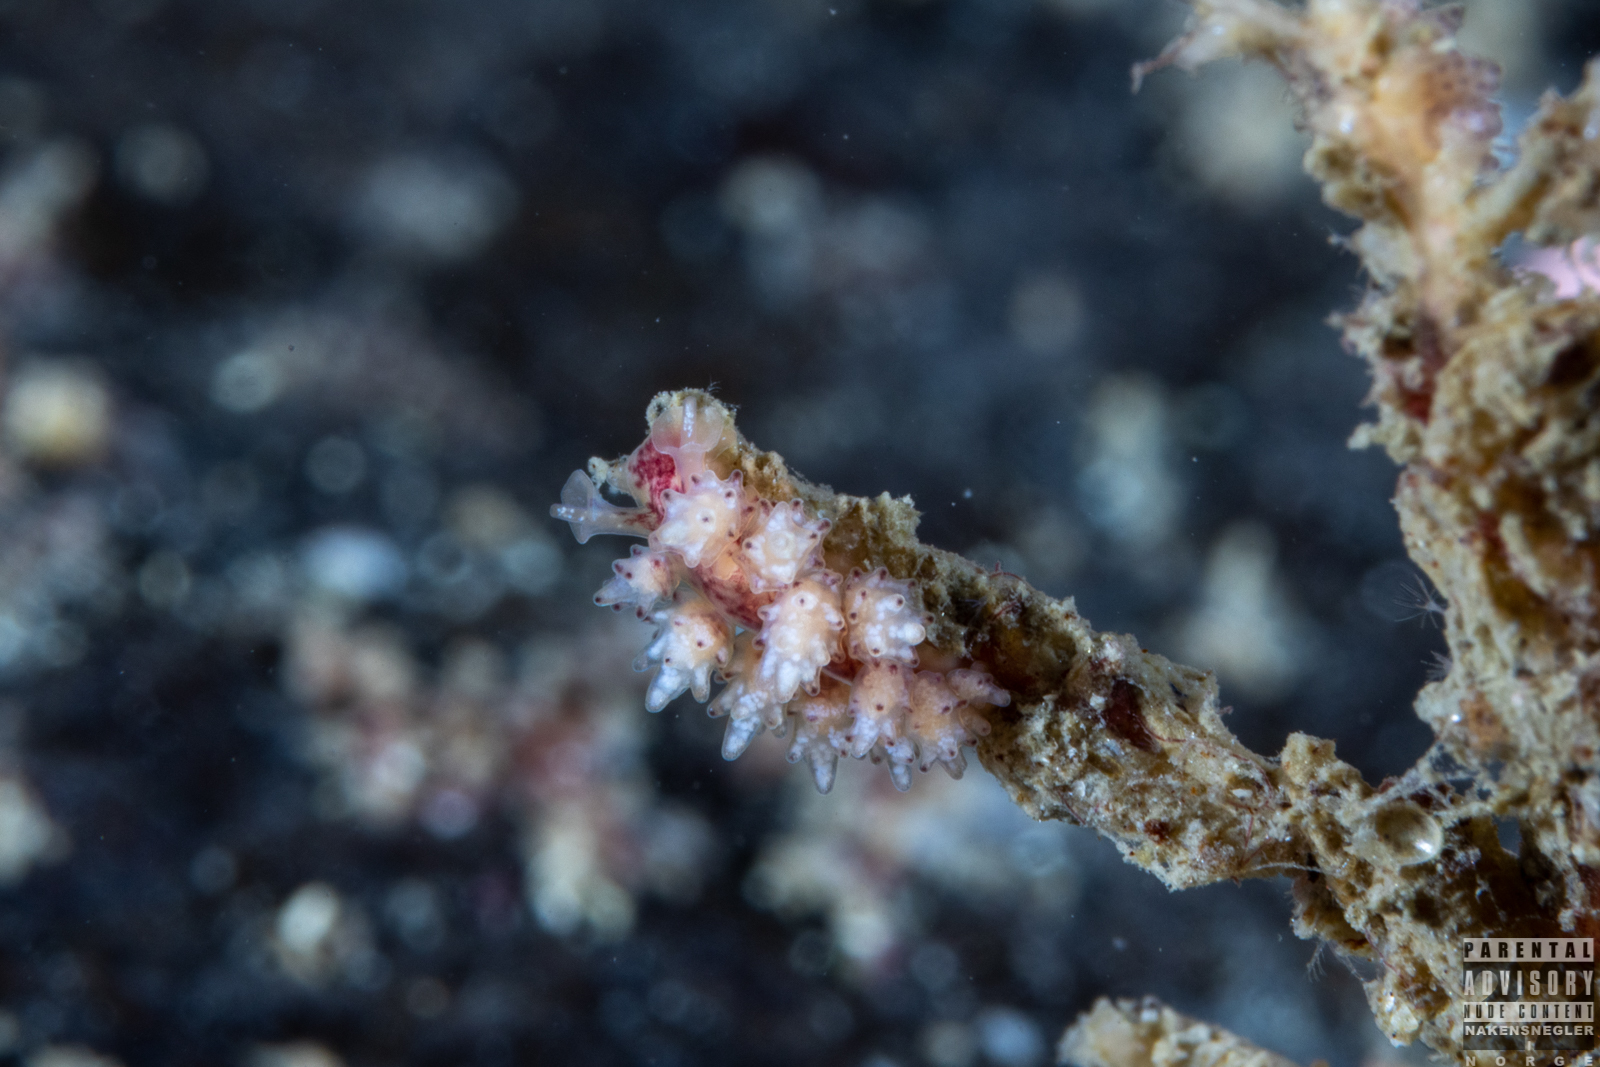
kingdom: Animalia
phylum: Mollusca
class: Gastropoda
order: Nudibranchia
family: Dotidae
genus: Doto
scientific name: Doto coronata
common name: Coronate doto
